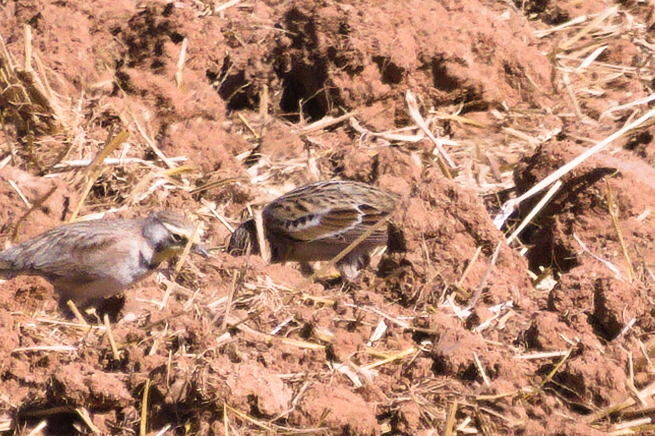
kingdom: Animalia
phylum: Chordata
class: Aves
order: Passeriformes
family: Calcariidae
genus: Calcarius
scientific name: Calcarius lapponicus
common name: Lapland longspur
